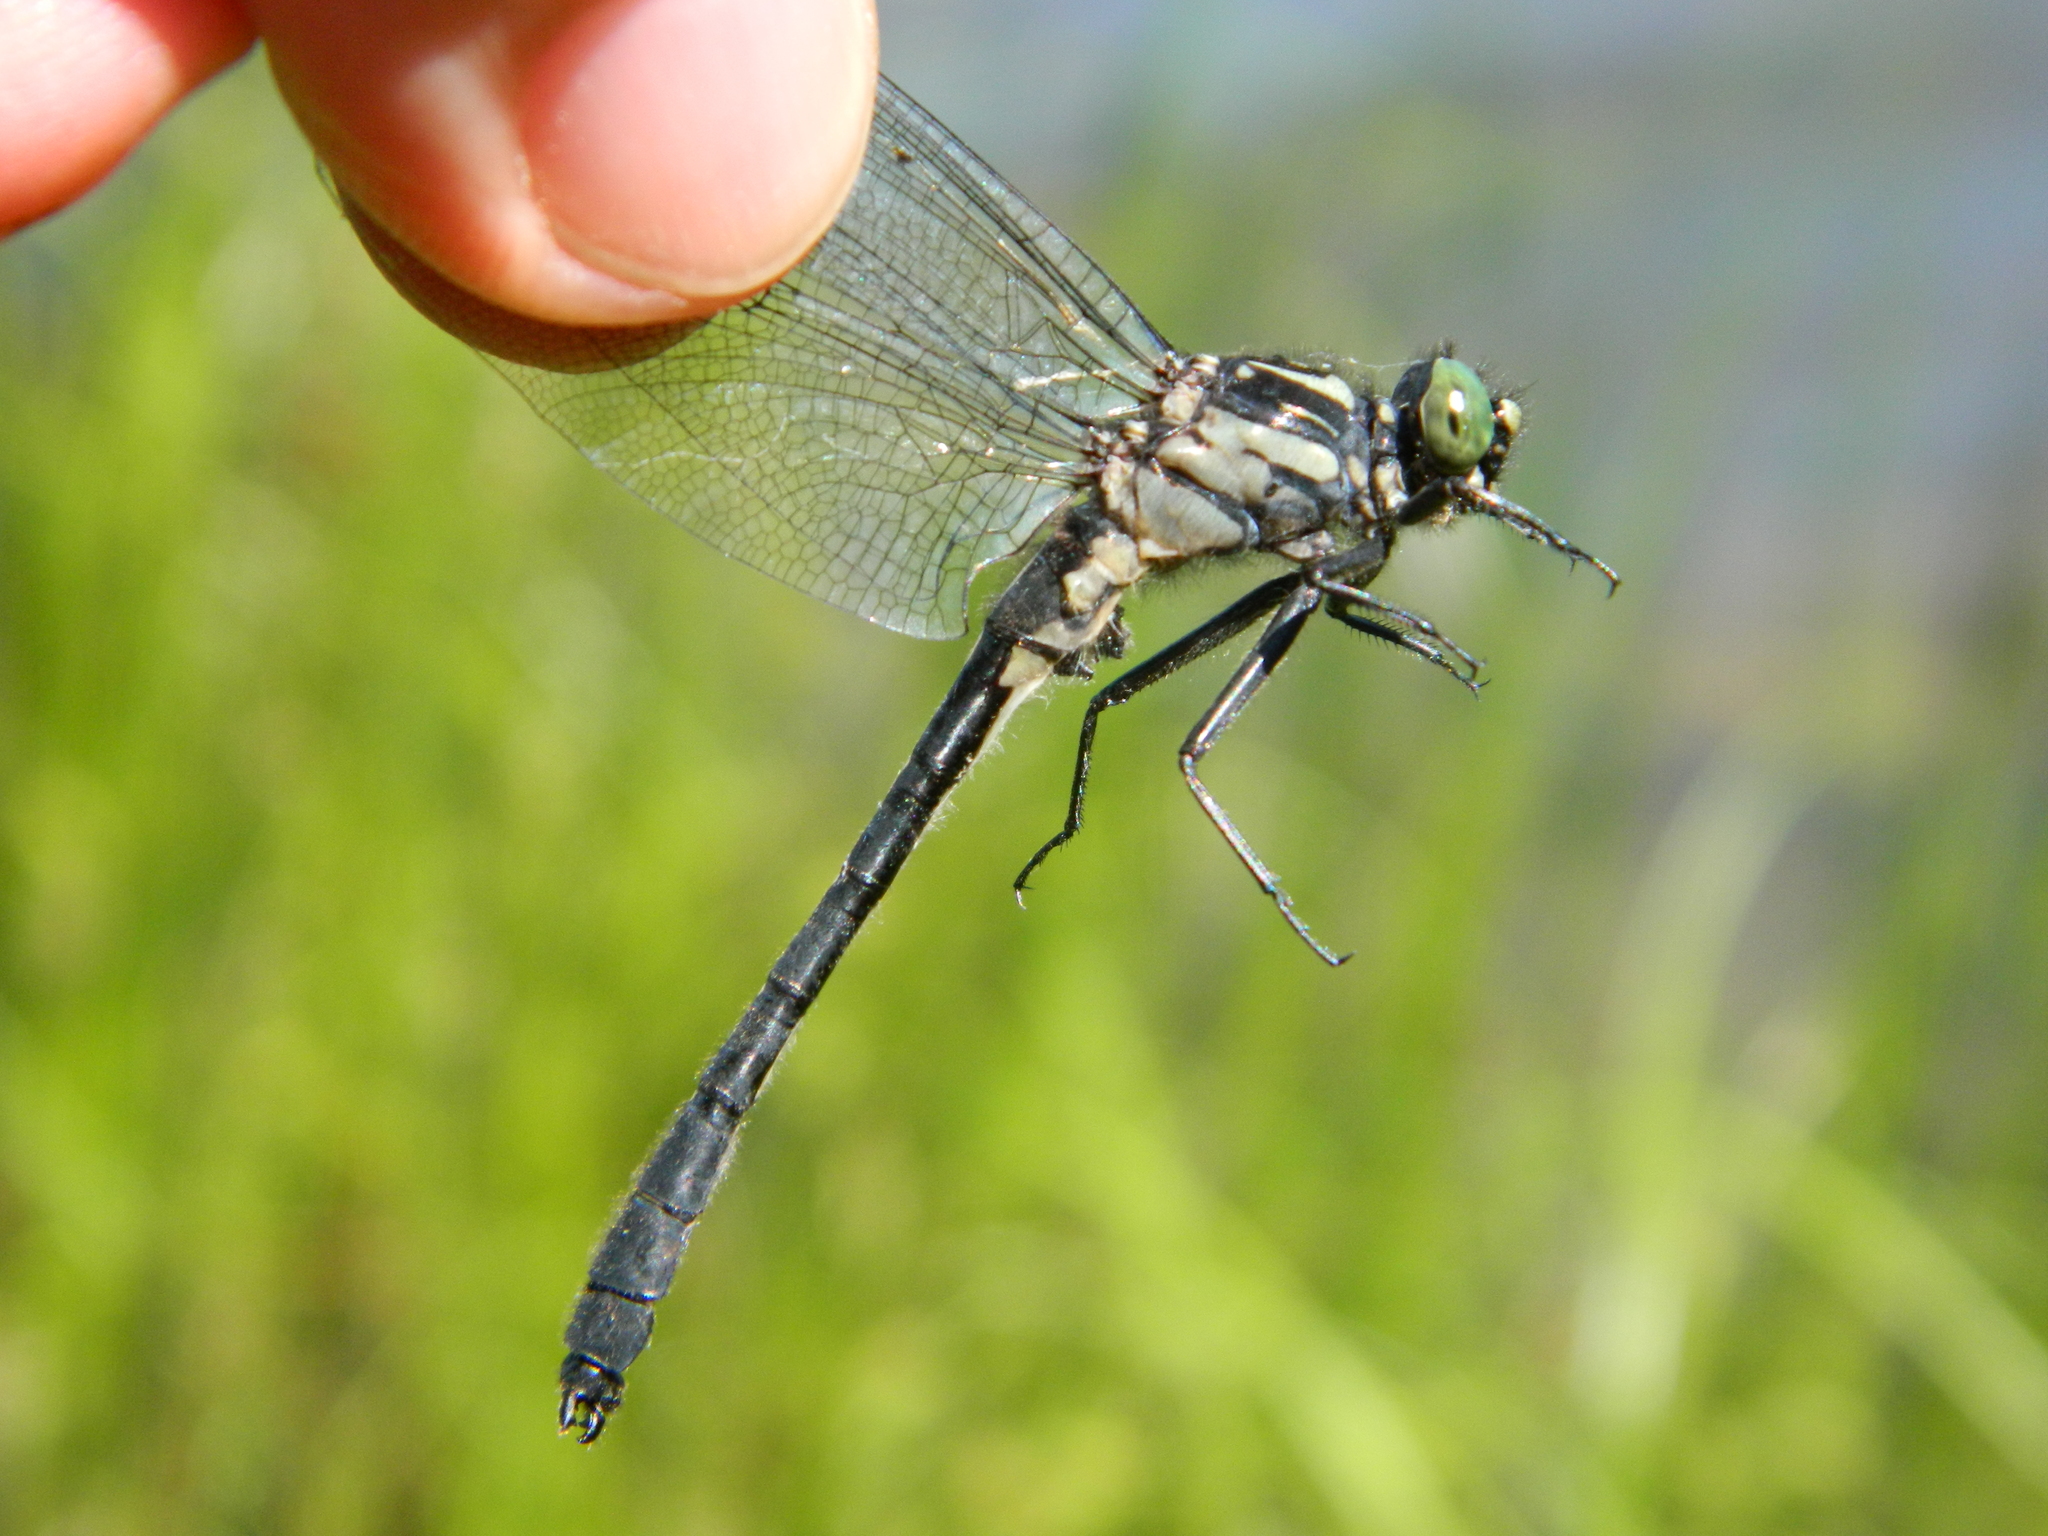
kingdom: Animalia
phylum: Arthropoda
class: Insecta
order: Odonata
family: Gomphidae
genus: Hylogomphus
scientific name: Hylogomphus adelphus
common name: Mustached clubtail
